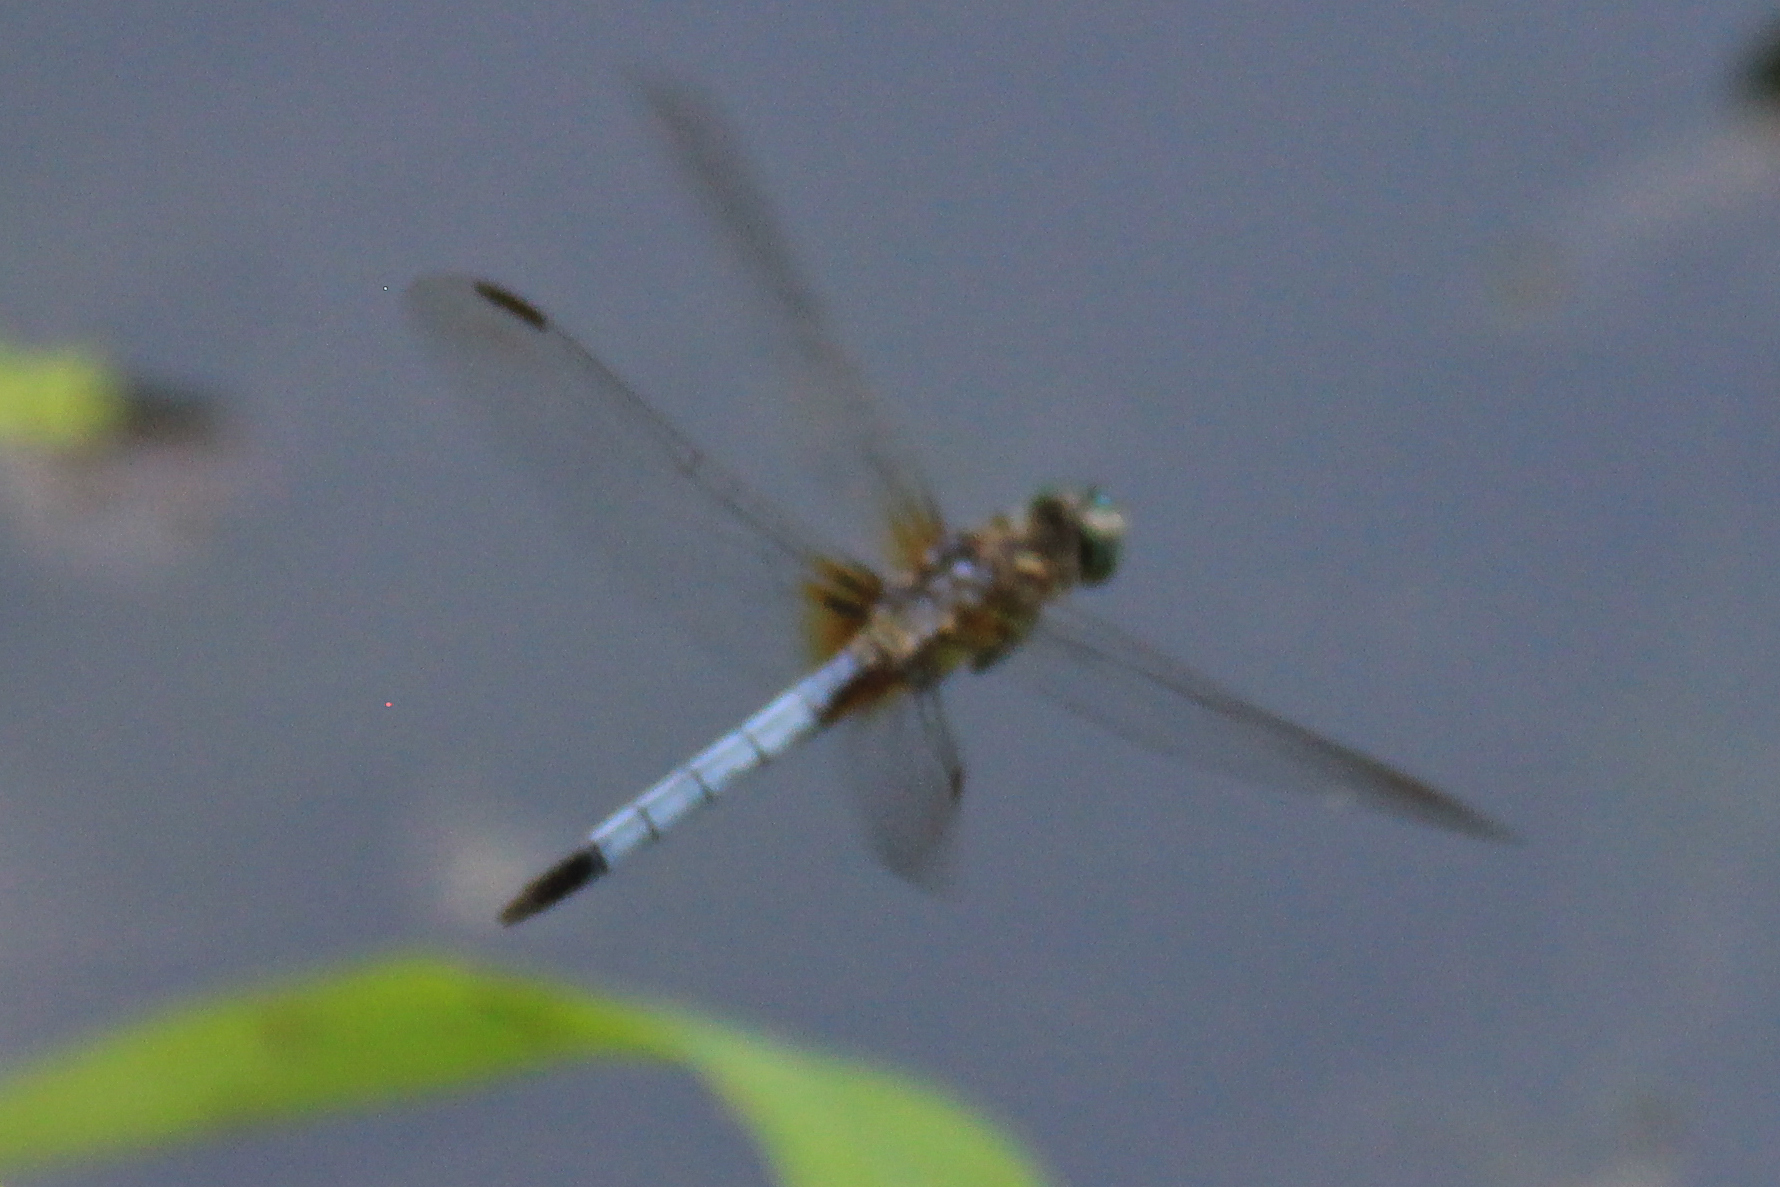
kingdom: Animalia
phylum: Arthropoda
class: Insecta
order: Odonata
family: Libellulidae
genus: Pachydiplax
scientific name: Pachydiplax longipennis
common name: Blue dasher
